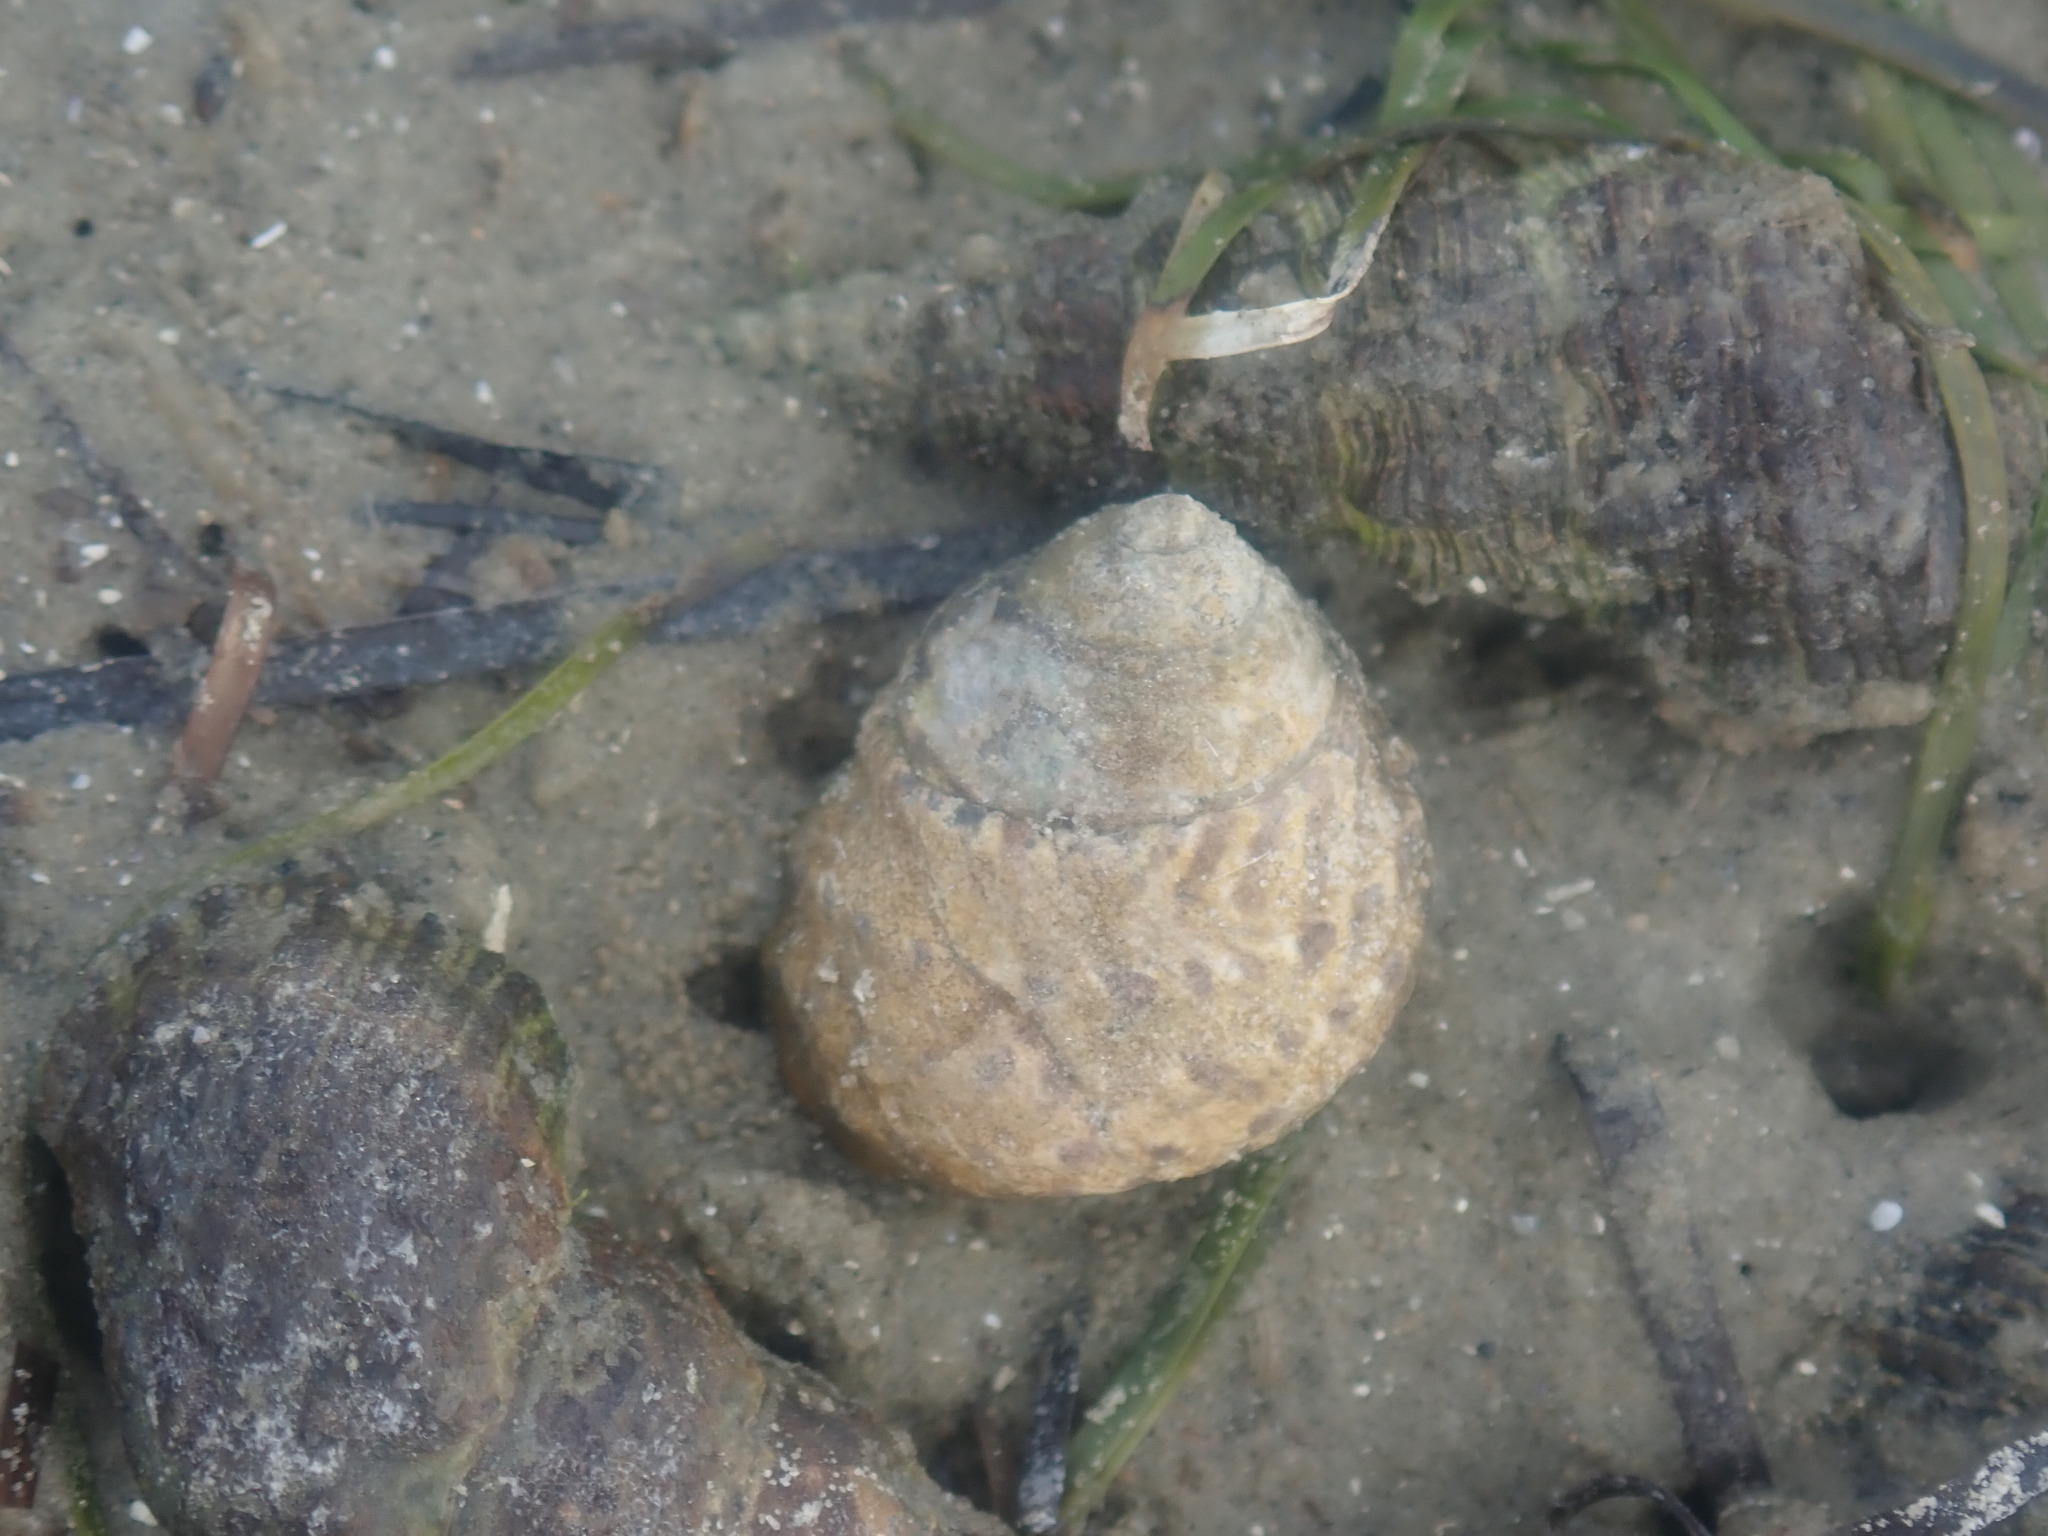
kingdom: Animalia
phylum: Mollusca
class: Gastropoda
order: Trochida
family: Trochidae
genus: Austrocochlea
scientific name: Austrocochlea constricta
